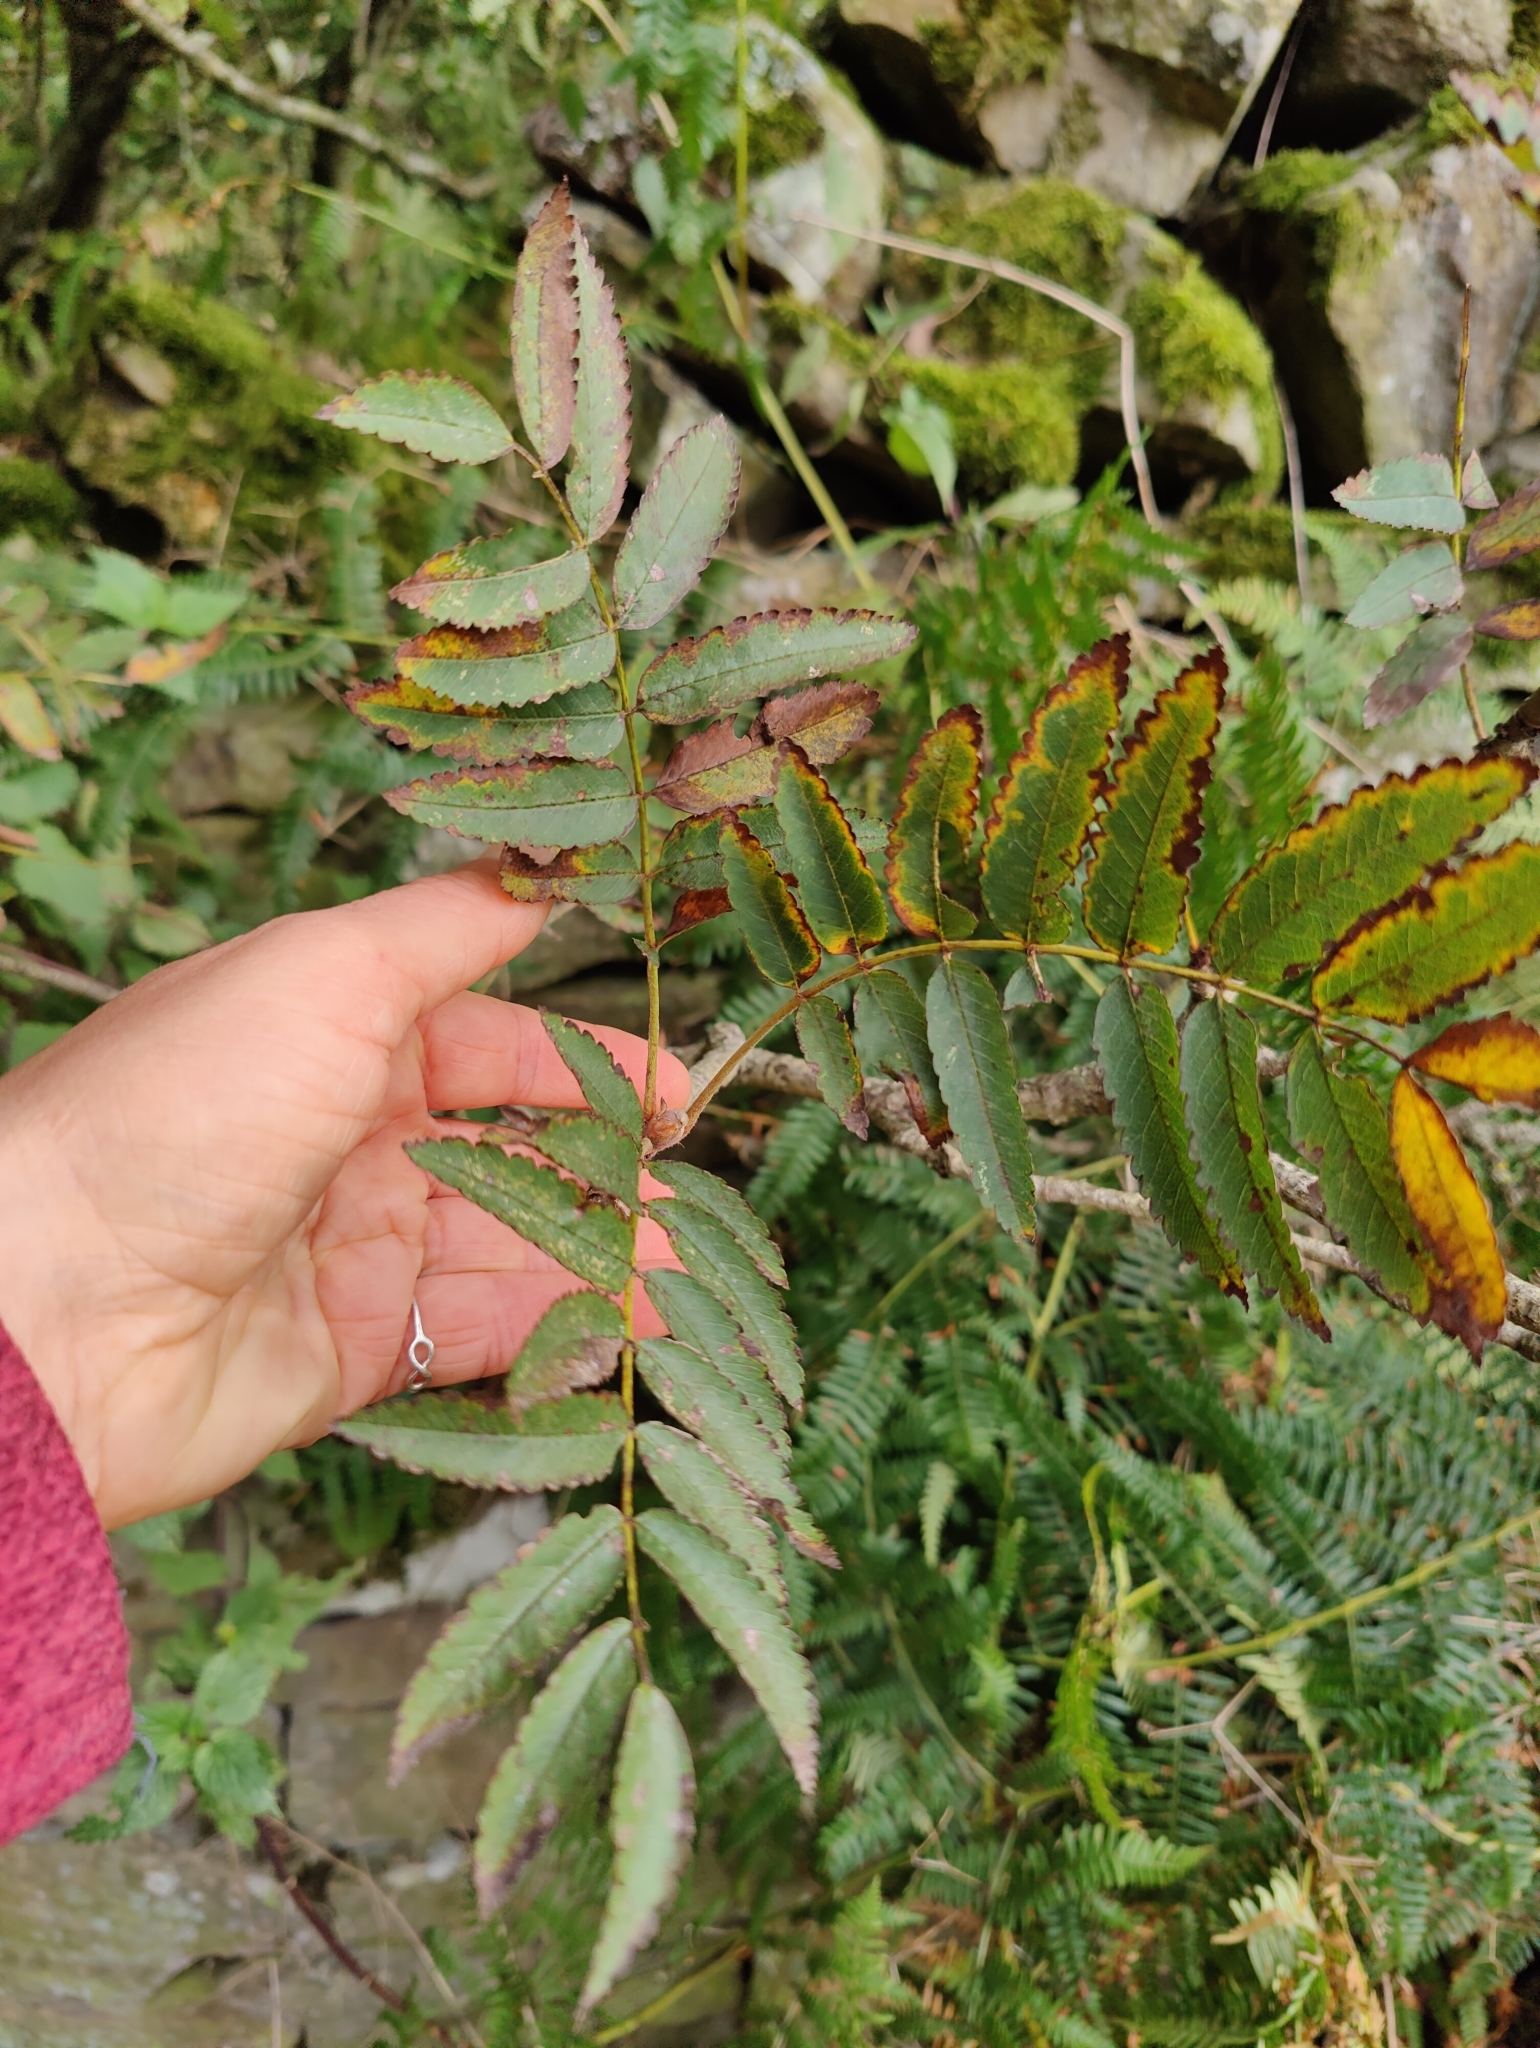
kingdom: Plantae
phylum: Tracheophyta
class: Magnoliopsida
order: Rosales
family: Rosaceae
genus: Sorbus
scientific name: Sorbus aucuparia
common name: Rowan
